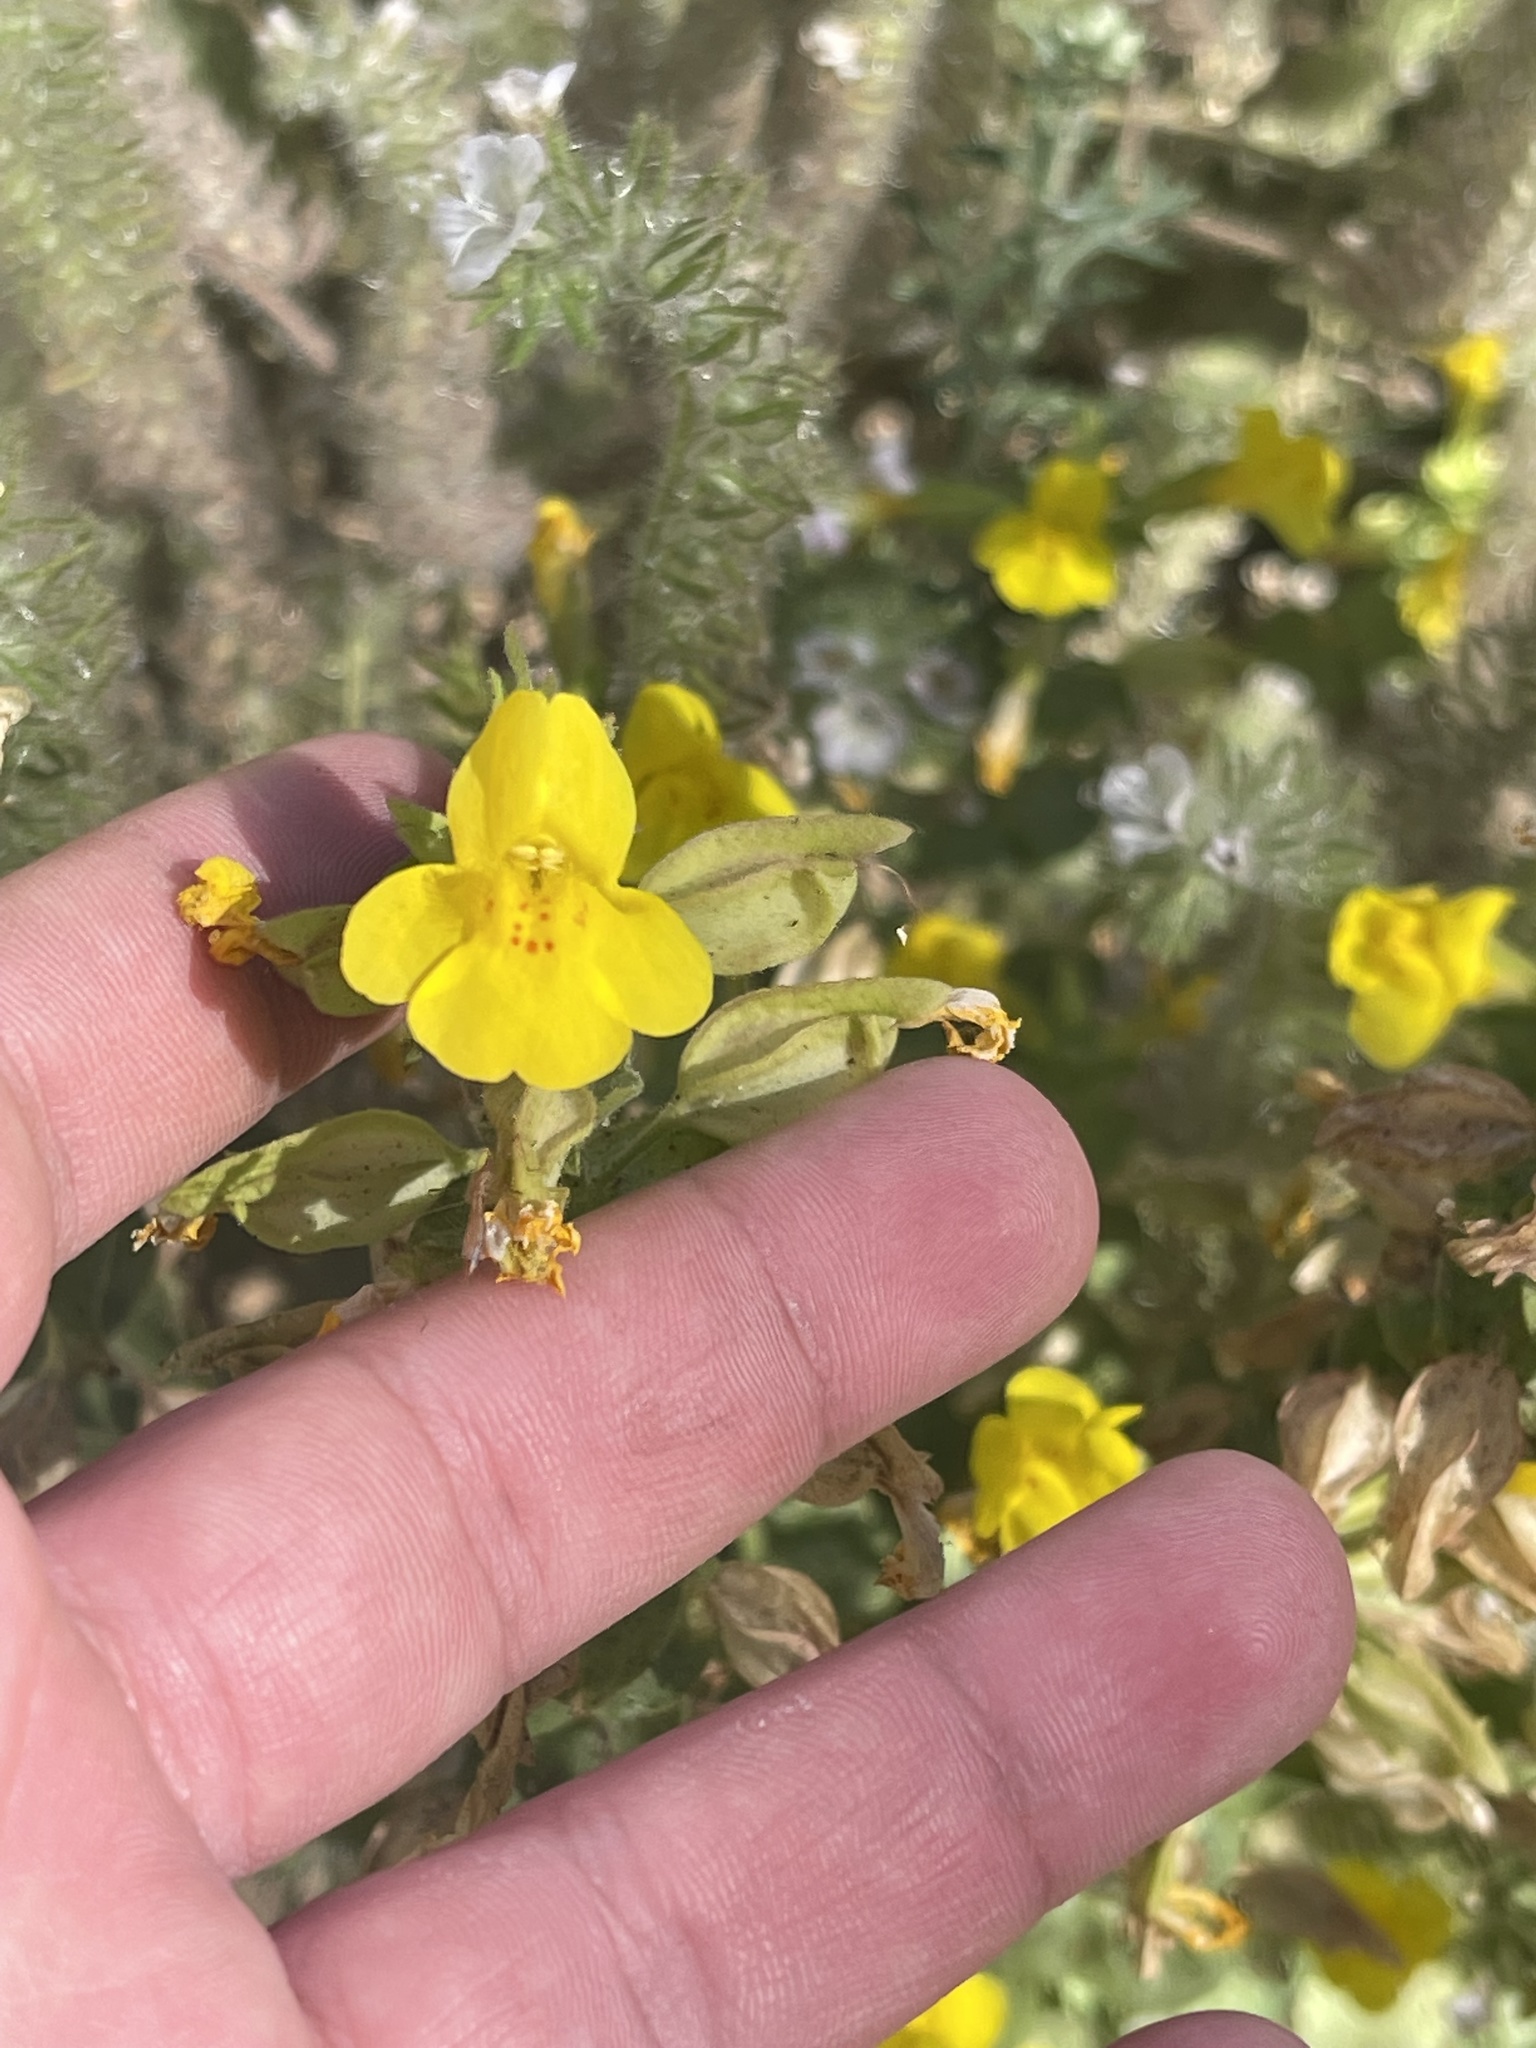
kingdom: Plantae
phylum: Tracheophyta
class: Magnoliopsida
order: Lamiales
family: Phrymaceae
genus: Erythranthe
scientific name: Erythranthe guttata
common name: Monkeyflower
